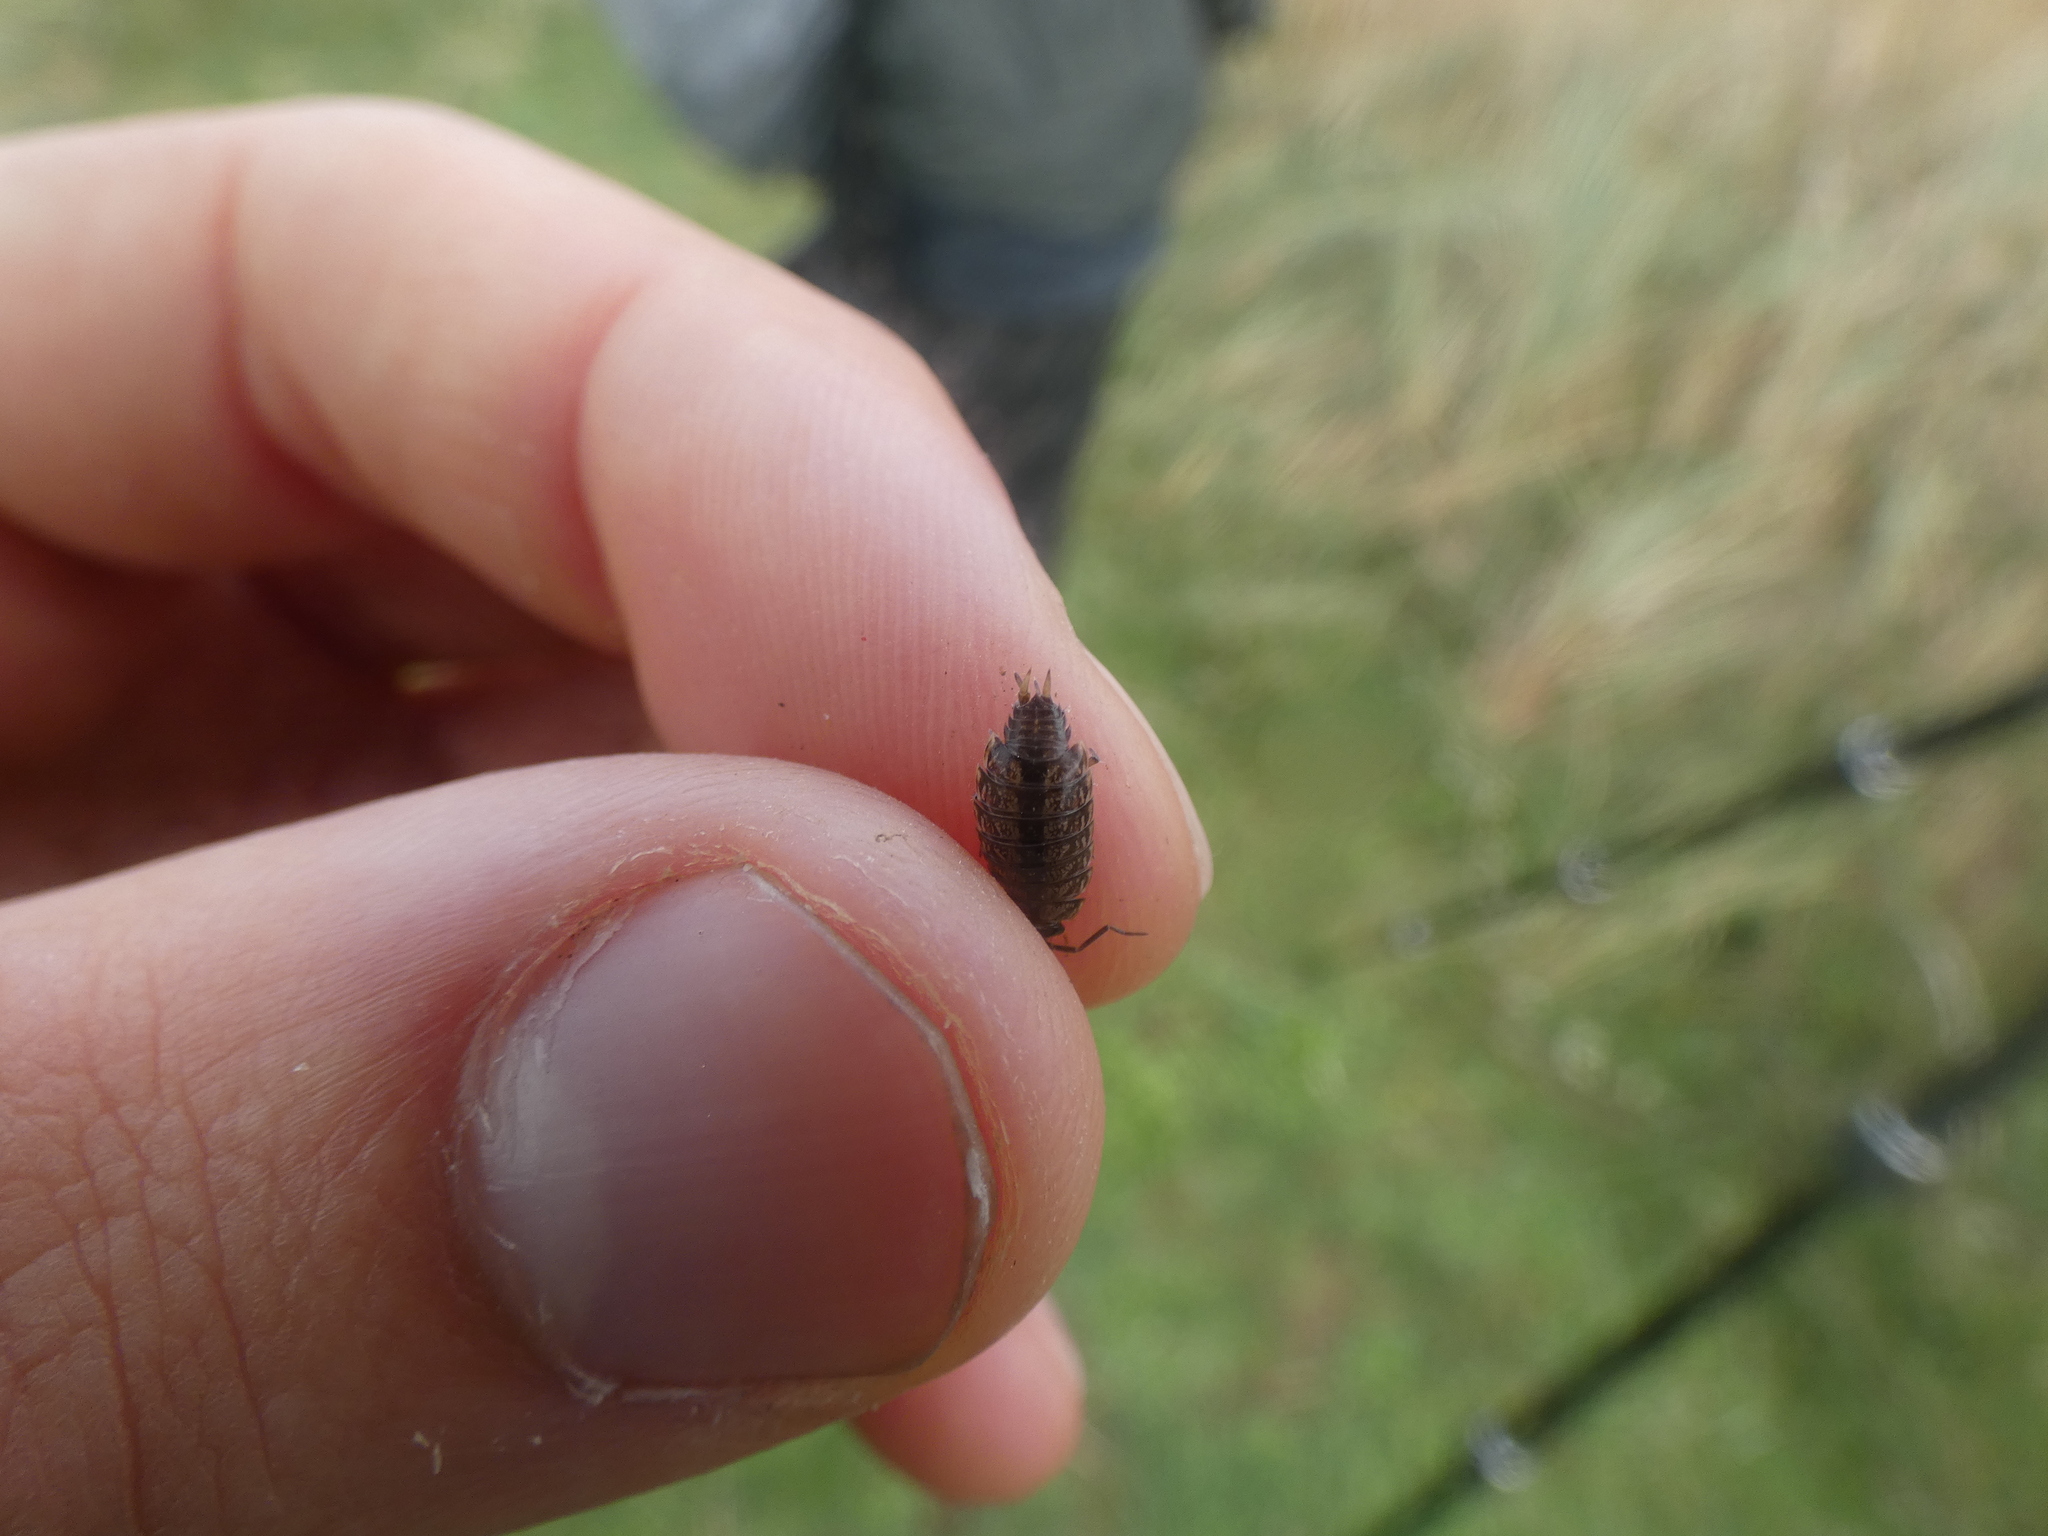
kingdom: Animalia
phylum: Arthropoda
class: Malacostraca
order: Isopoda
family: Philosciidae
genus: Philoscia
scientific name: Philoscia muscorum
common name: Common striped woodlouse
